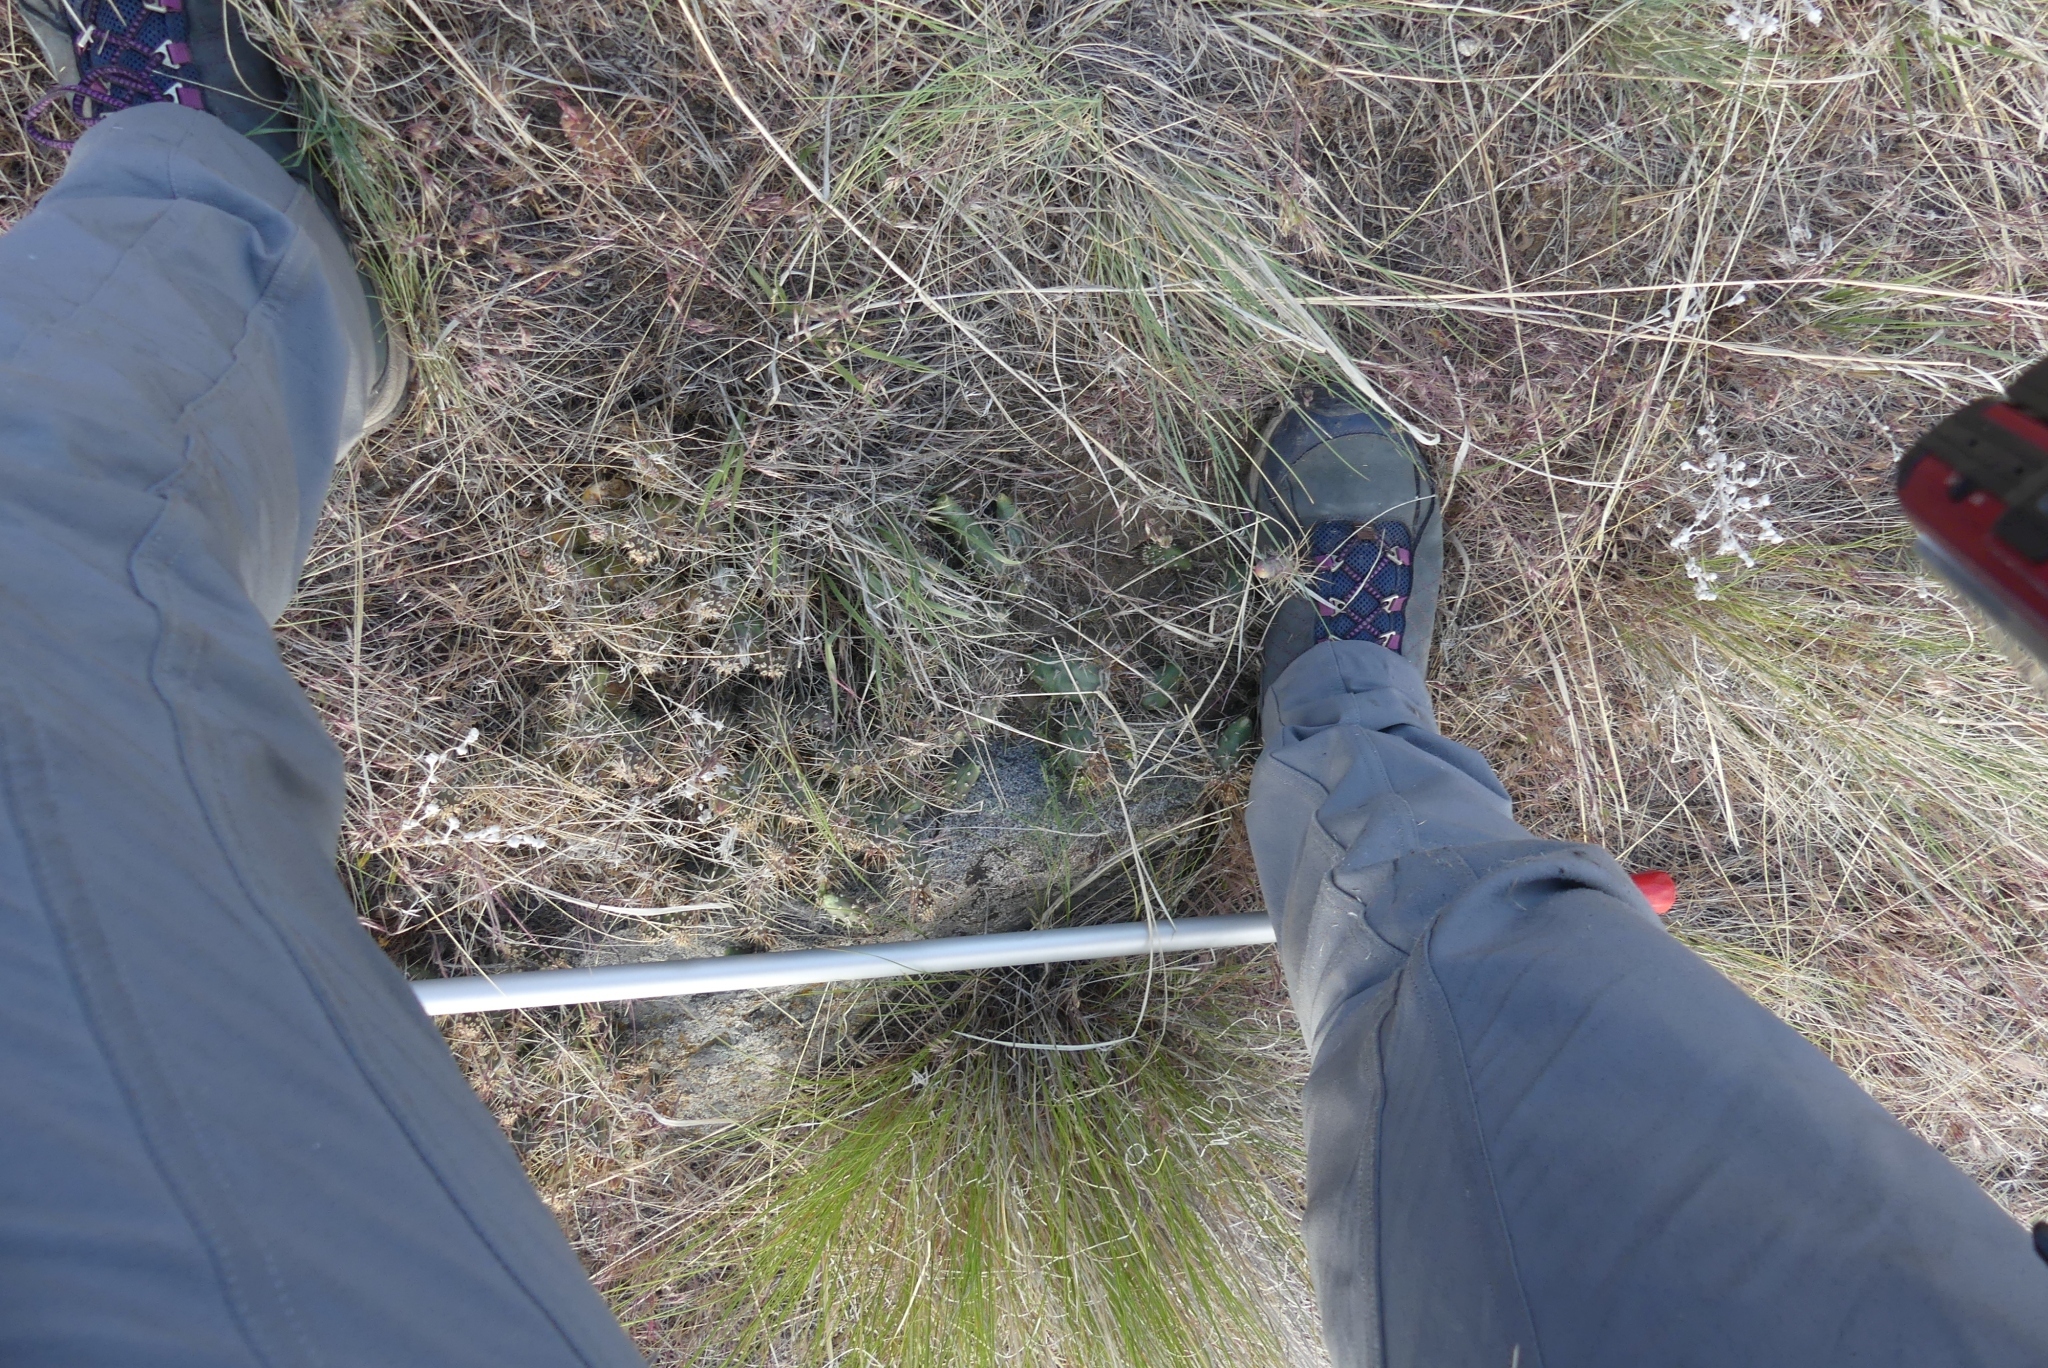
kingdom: Plantae
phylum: Tracheophyta
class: Magnoliopsida
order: Caryophyllales
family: Cactaceae
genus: Opuntia
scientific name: Opuntia fragilis
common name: Brittle cactus
